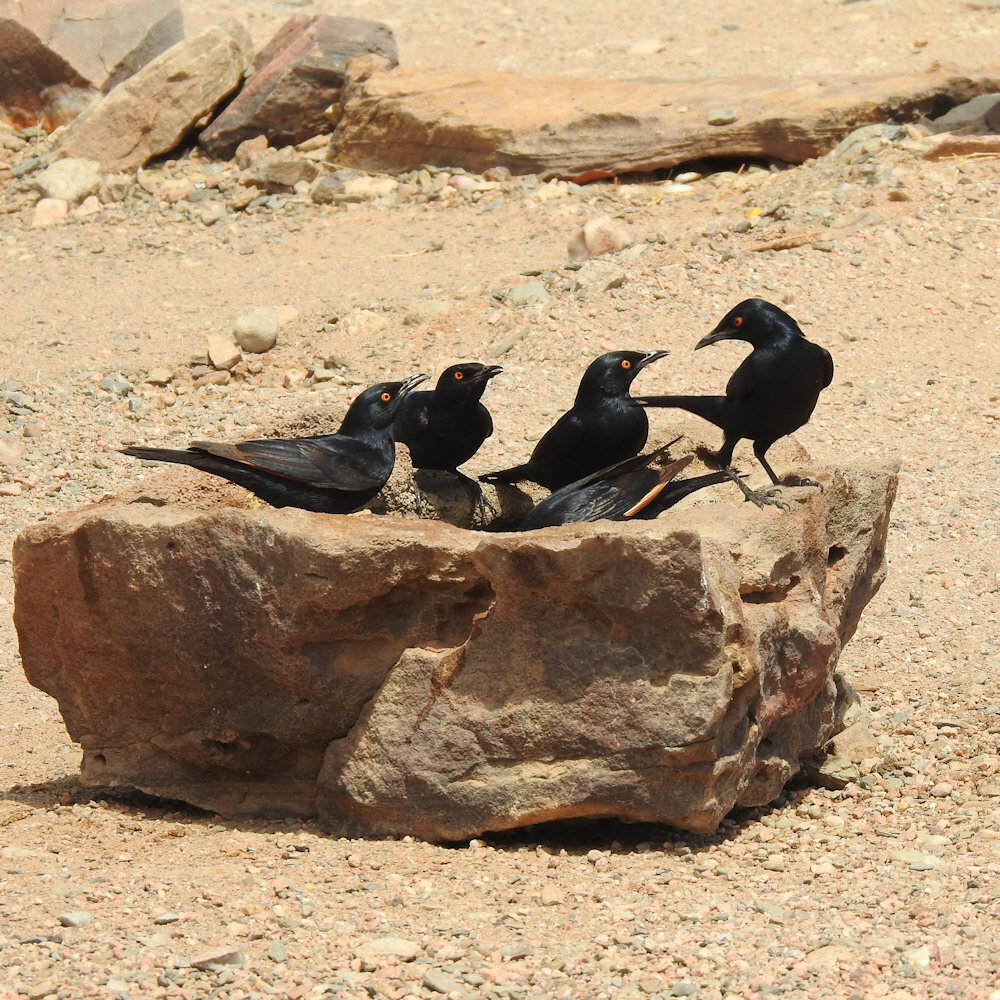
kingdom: Animalia
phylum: Chordata
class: Aves
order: Passeriformes
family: Sturnidae
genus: Onychognathus
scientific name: Onychognathus nabouroup
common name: Pale-winged starling
